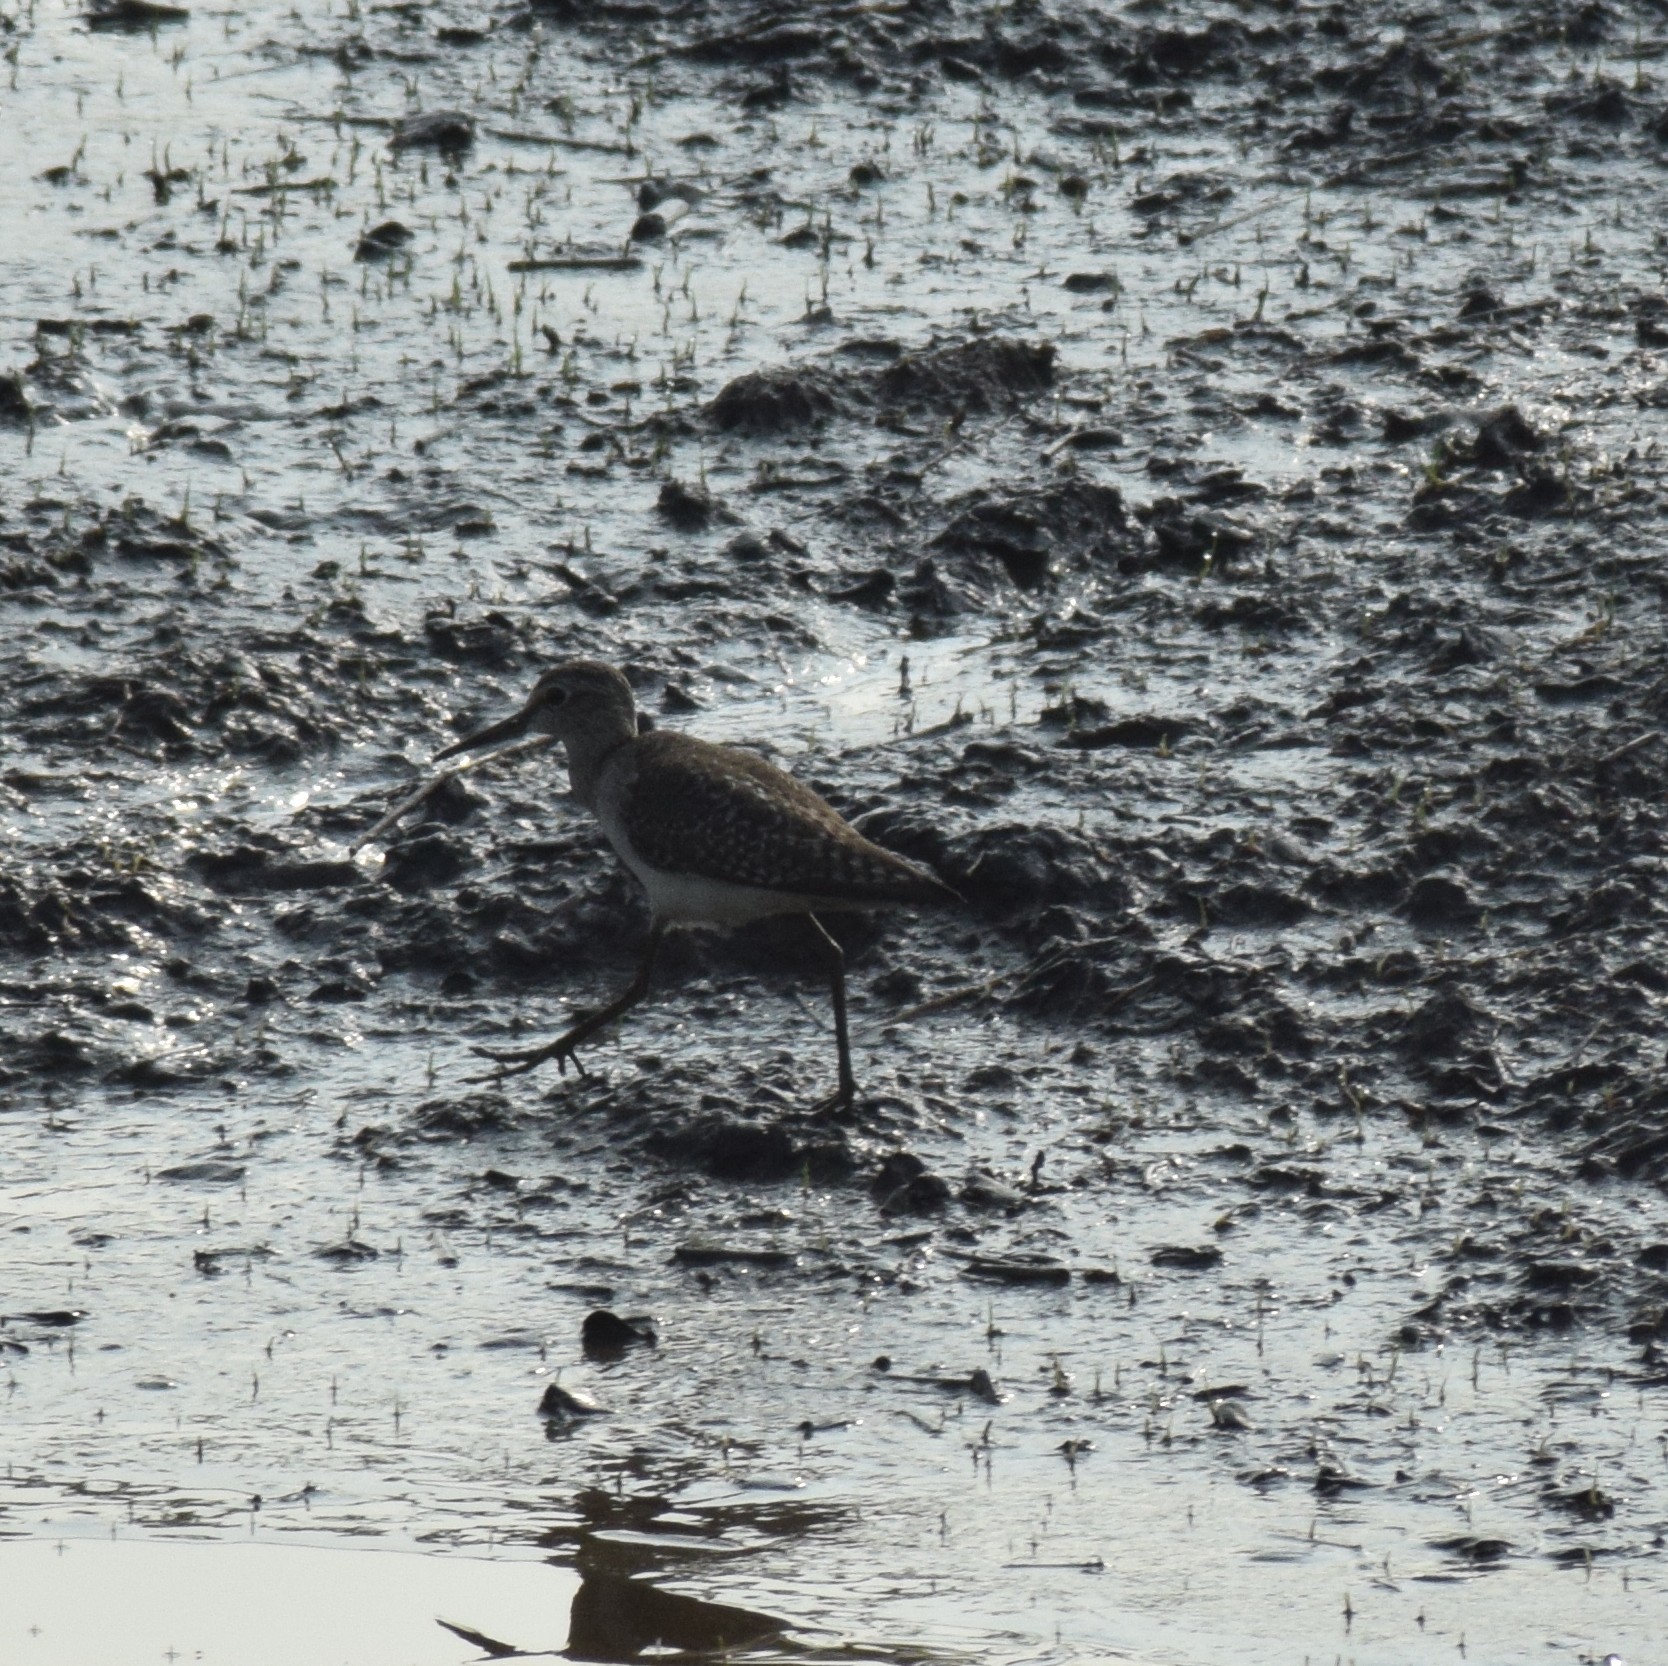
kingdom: Animalia
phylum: Chordata
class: Aves
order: Charadriiformes
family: Scolopacidae
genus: Tringa
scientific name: Tringa glareola
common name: Wood sandpiper
